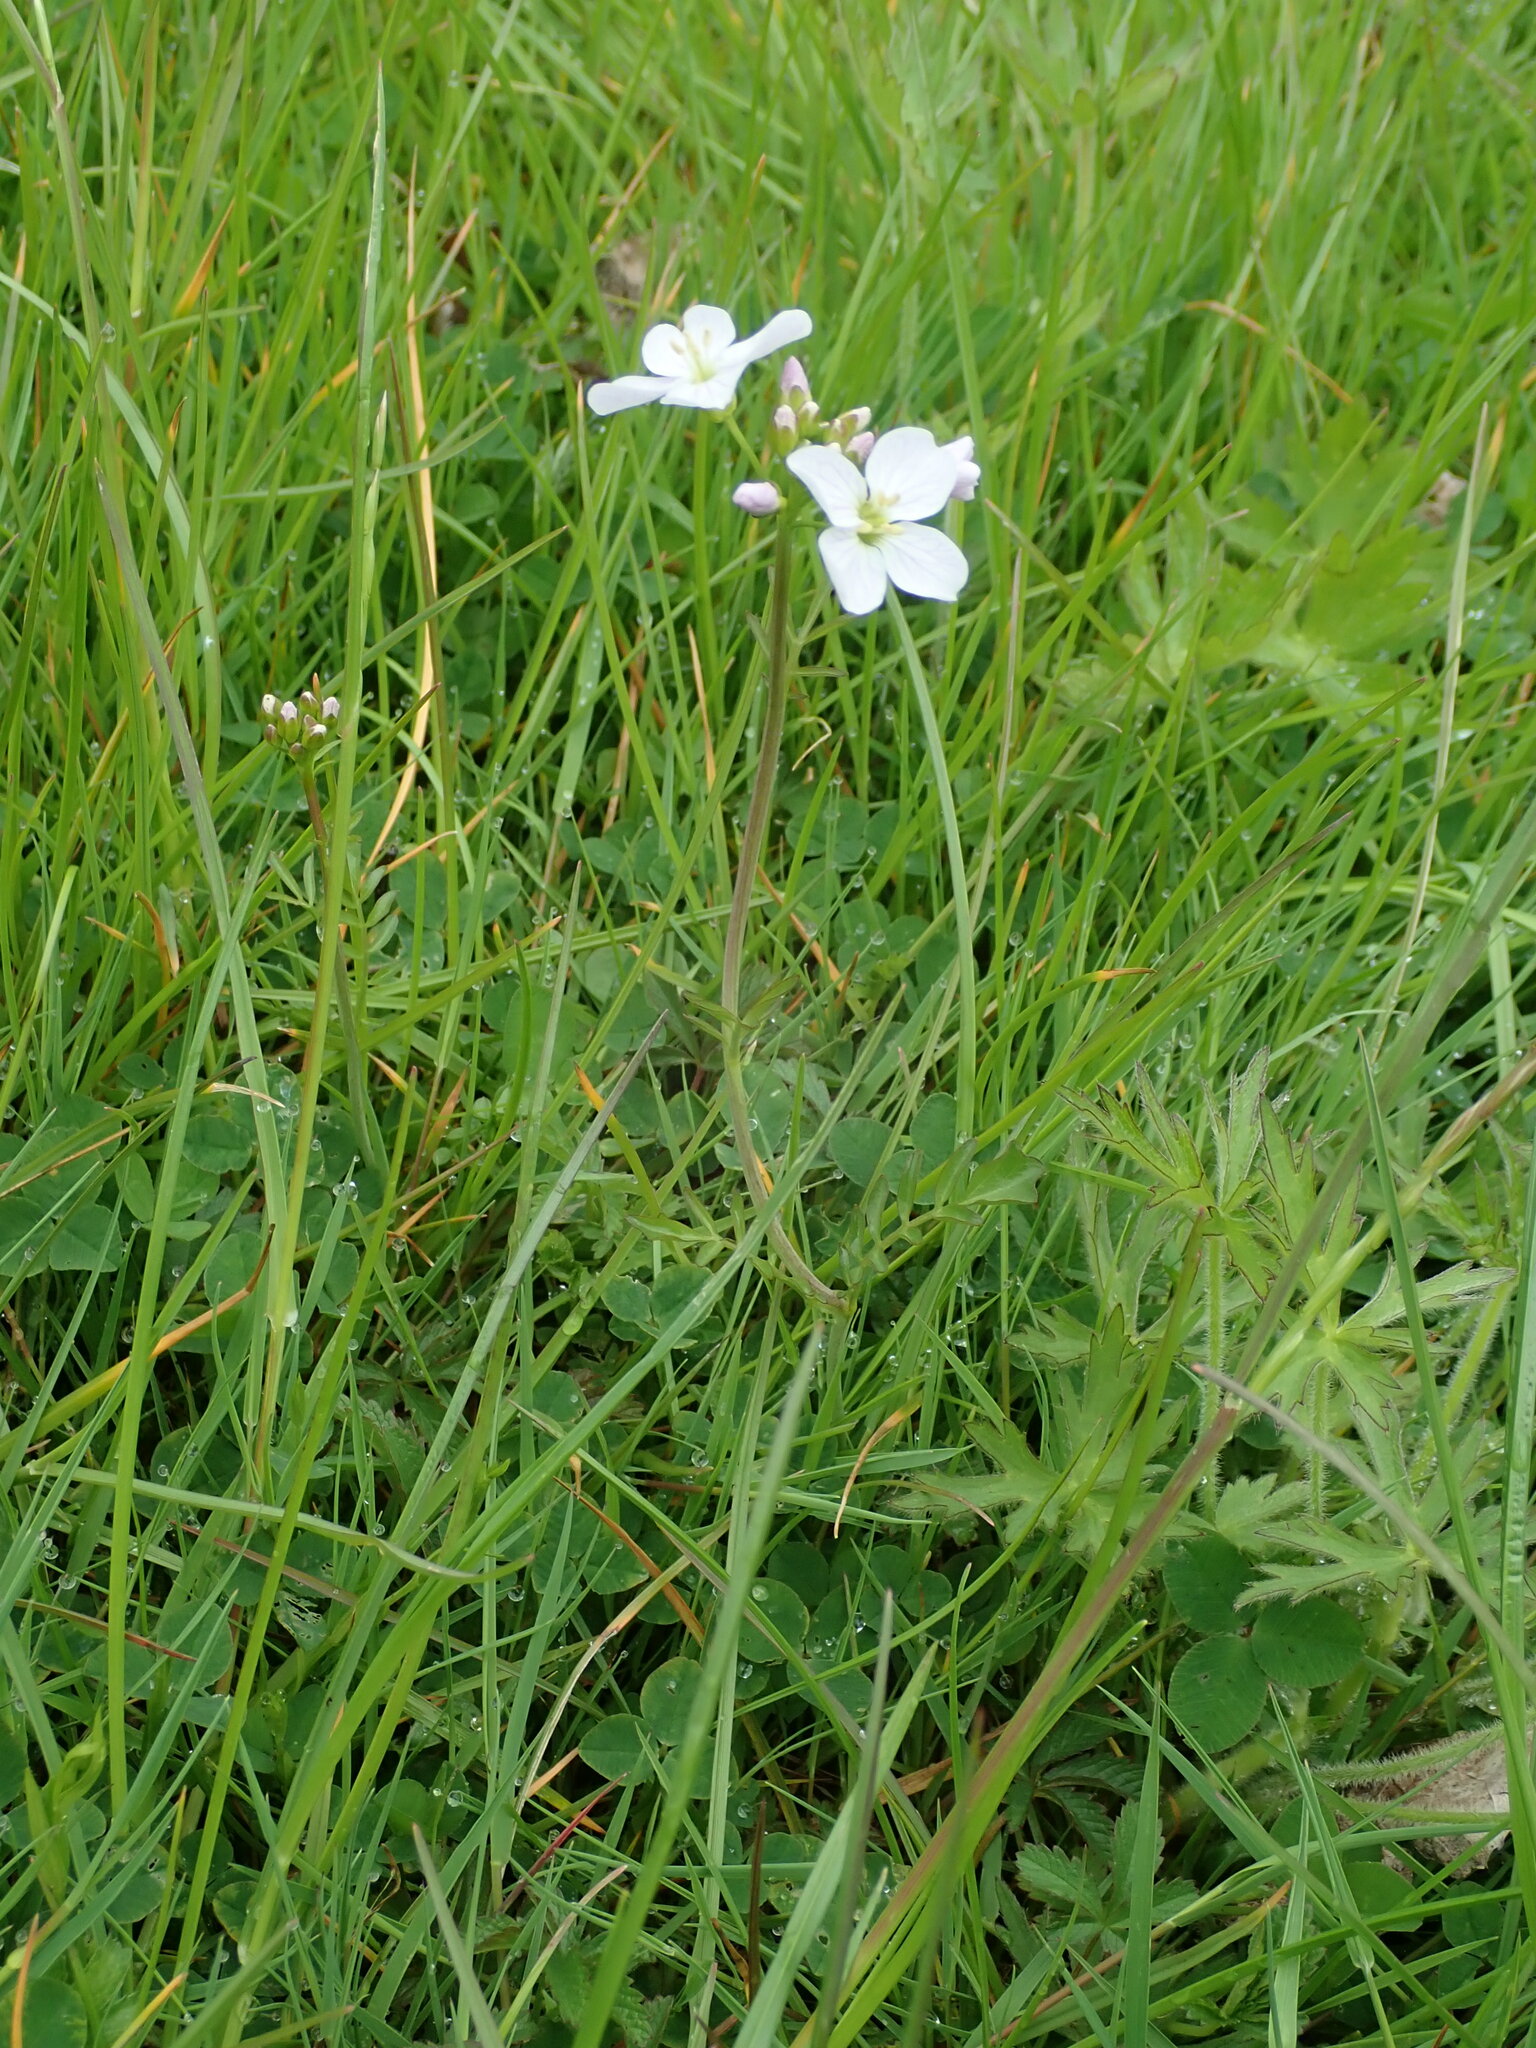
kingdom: Plantae
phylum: Tracheophyta
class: Magnoliopsida
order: Brassicales
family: Brassicaceae
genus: Cardamine
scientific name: Cardamine pratensis
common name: Cuckoo flower
